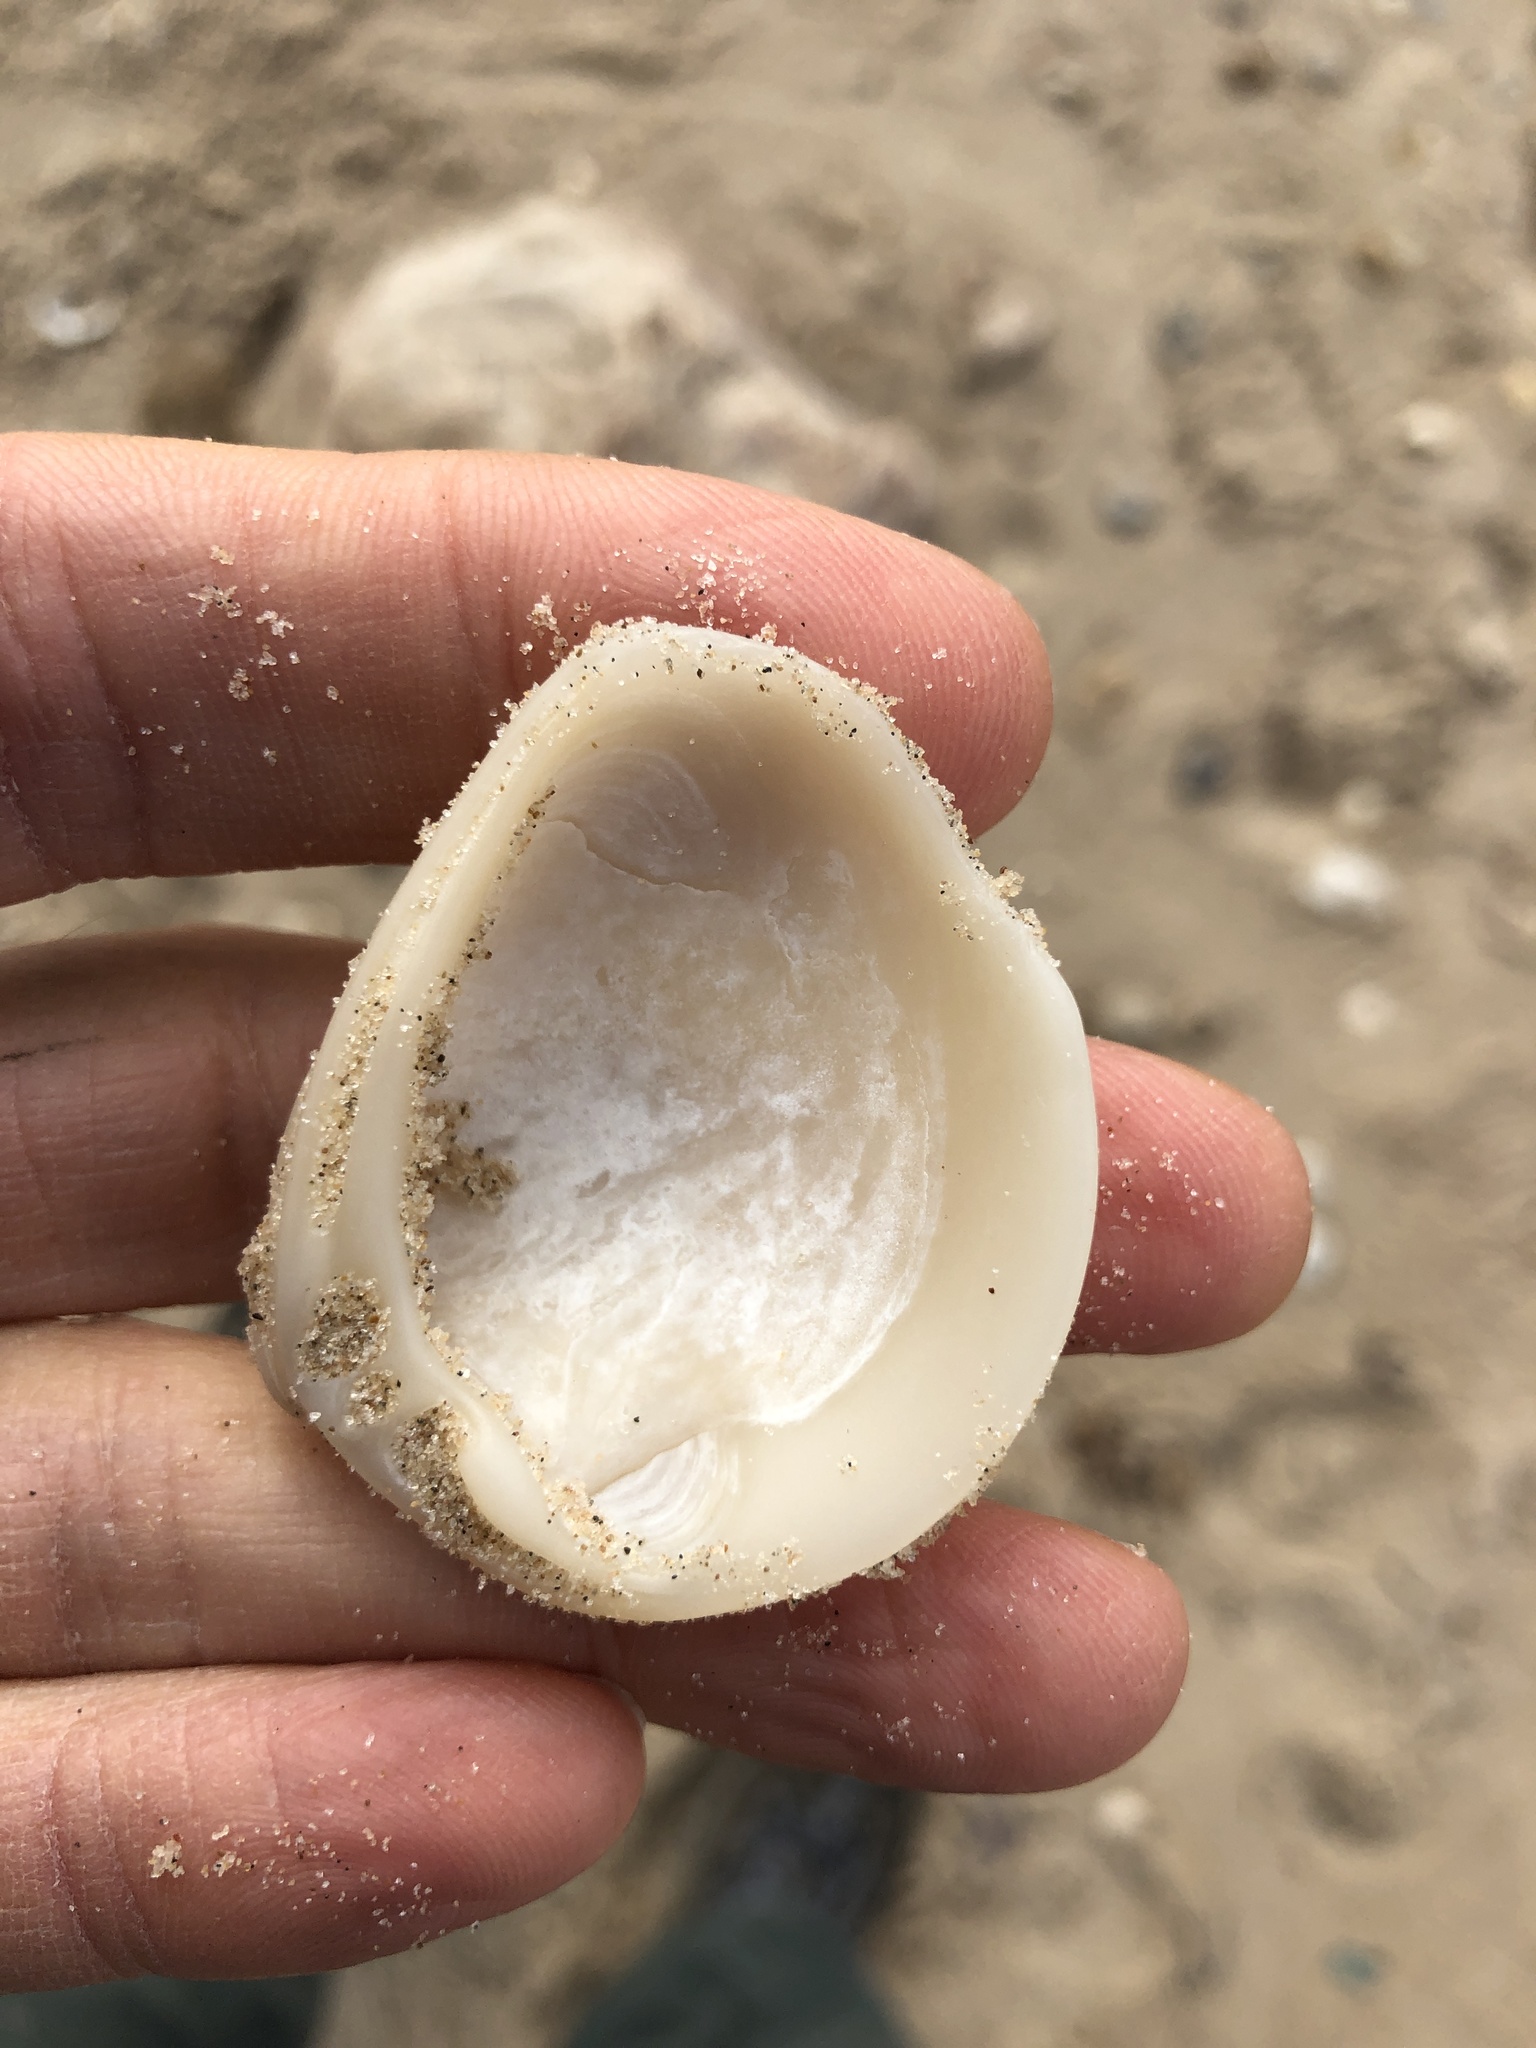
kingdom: Animalia
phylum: Mollusca
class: Bivalvia
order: Venerida
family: Mactridae
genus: Rangia
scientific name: Rangia cuneata
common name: Atlantic rangia
